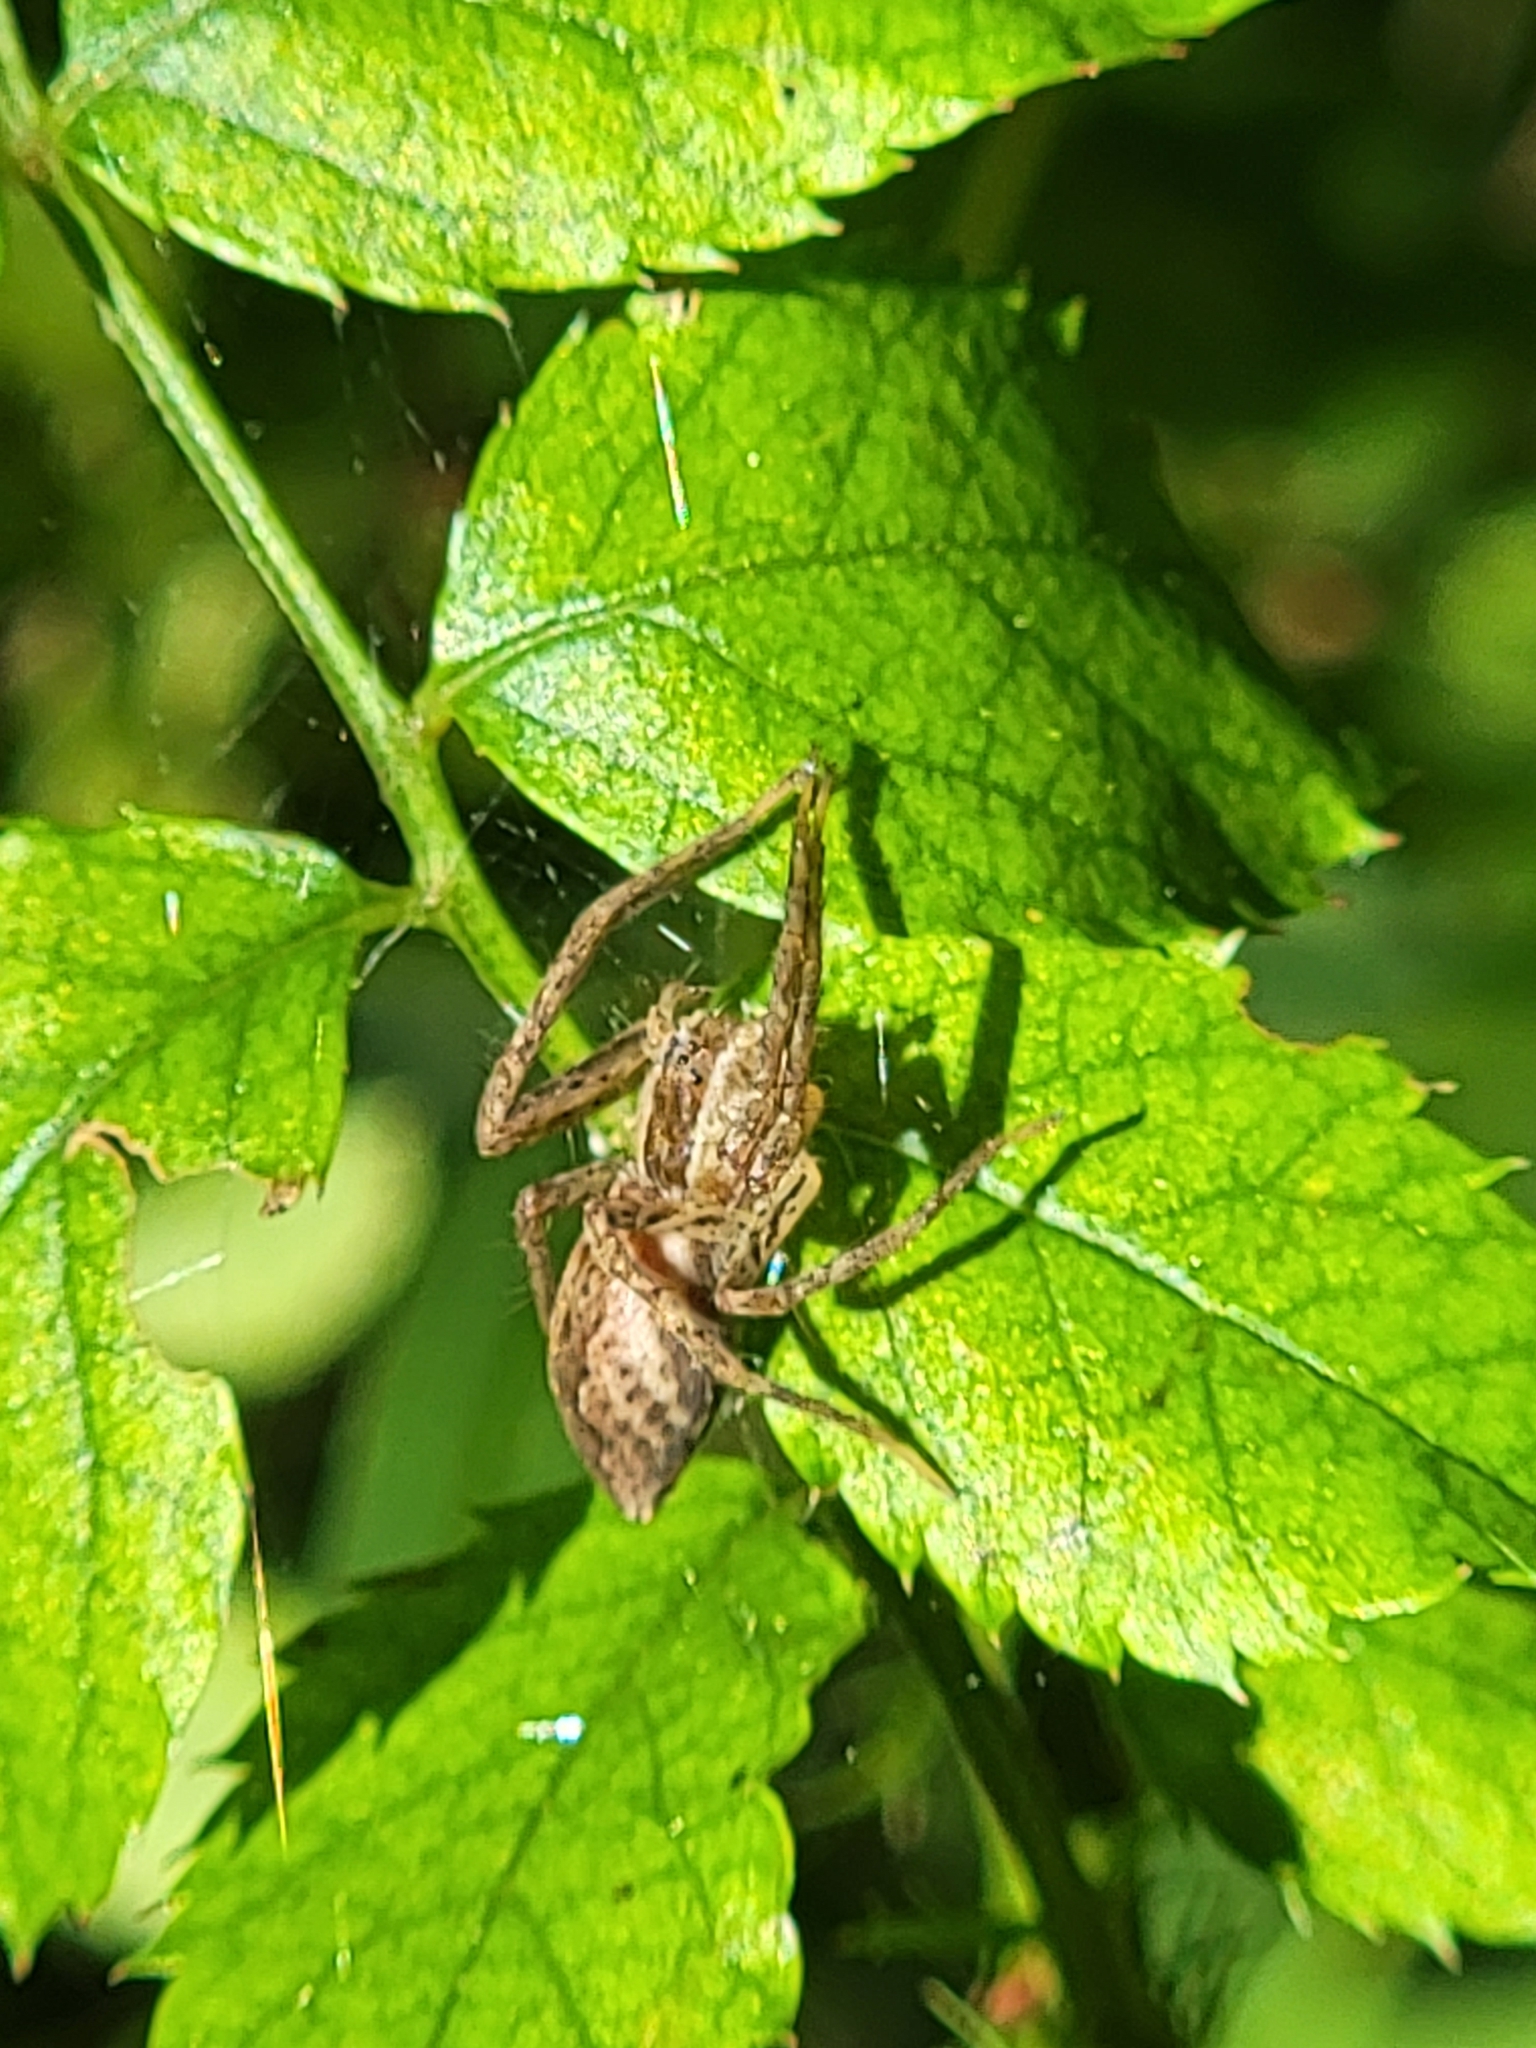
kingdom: Animalia
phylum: Arthropoda
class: Arachnida
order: Araneae
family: Pisauridae
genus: Pisaurina
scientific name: Pisaurina mira
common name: American nursery web spider
